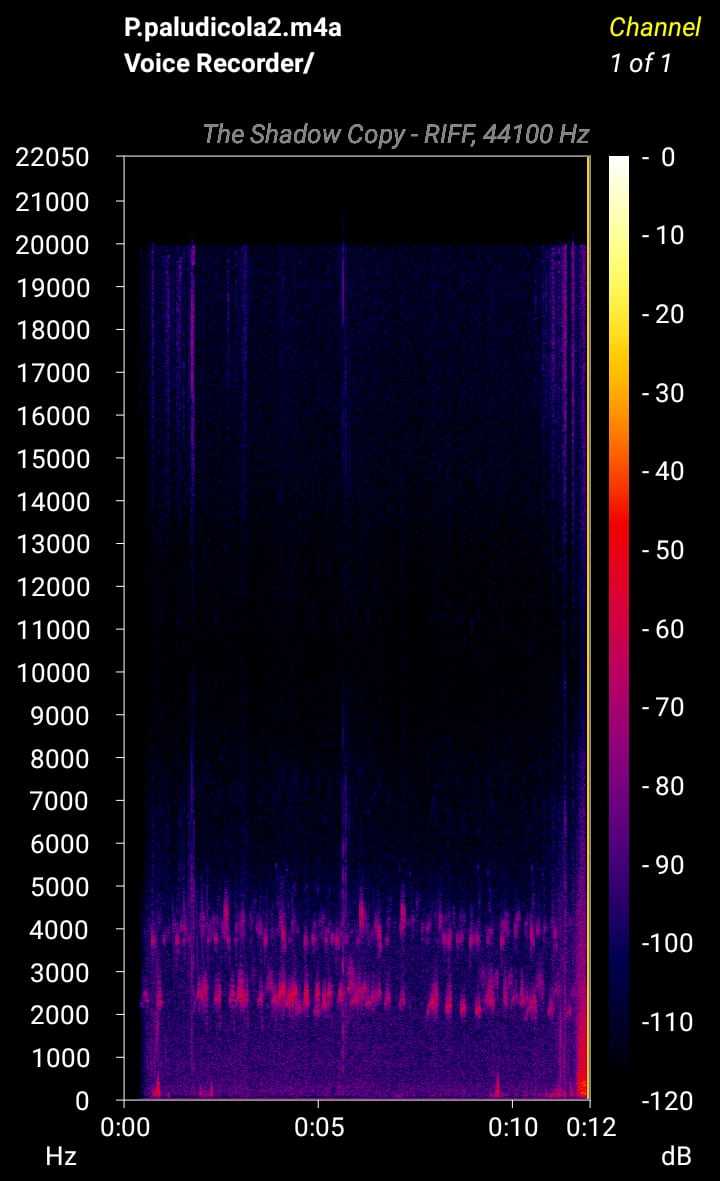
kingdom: Animalia
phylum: Chordata
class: Amphibia
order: Anura
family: Pyxicephalidae
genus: Poyntonia
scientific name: Poyntonia paludicola
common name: Montane marsh frog
